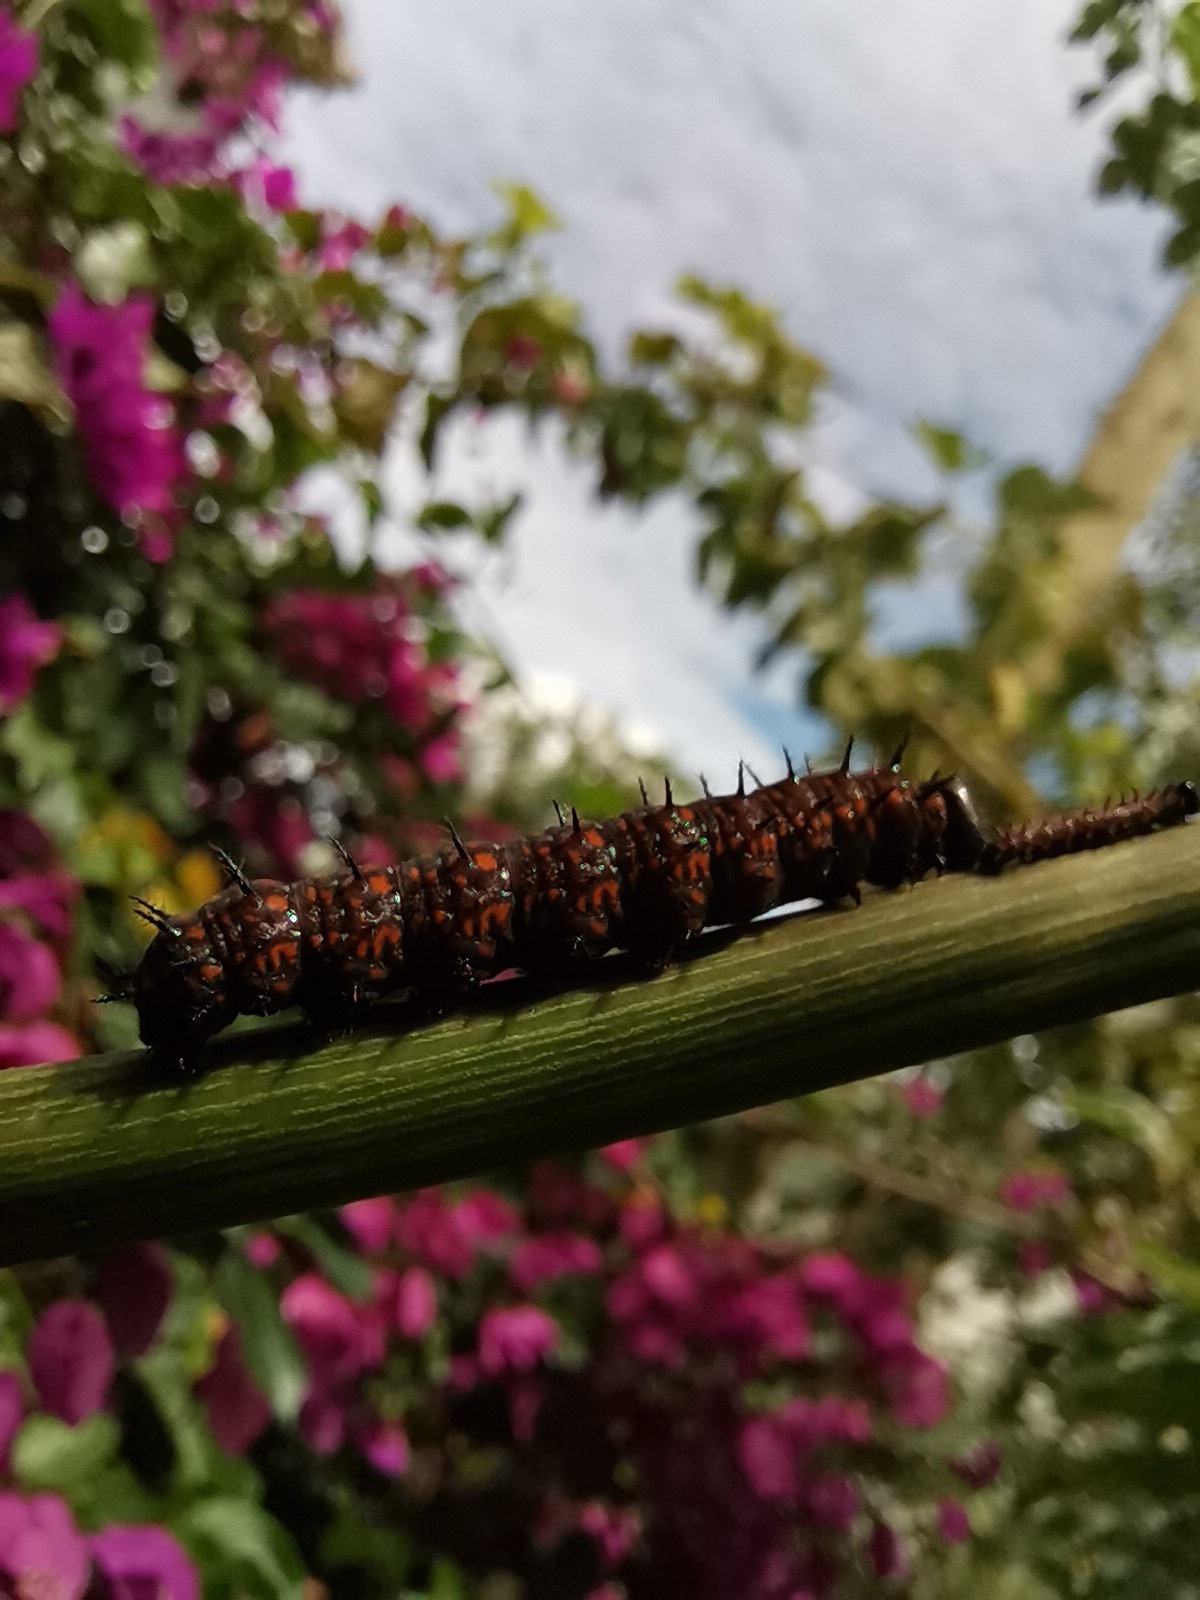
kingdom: Animalia
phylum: Arthropoda
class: Insecta
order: Lepidoptera
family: Nymphalidae
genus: Dione
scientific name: Dione juno
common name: Juno silverspot
